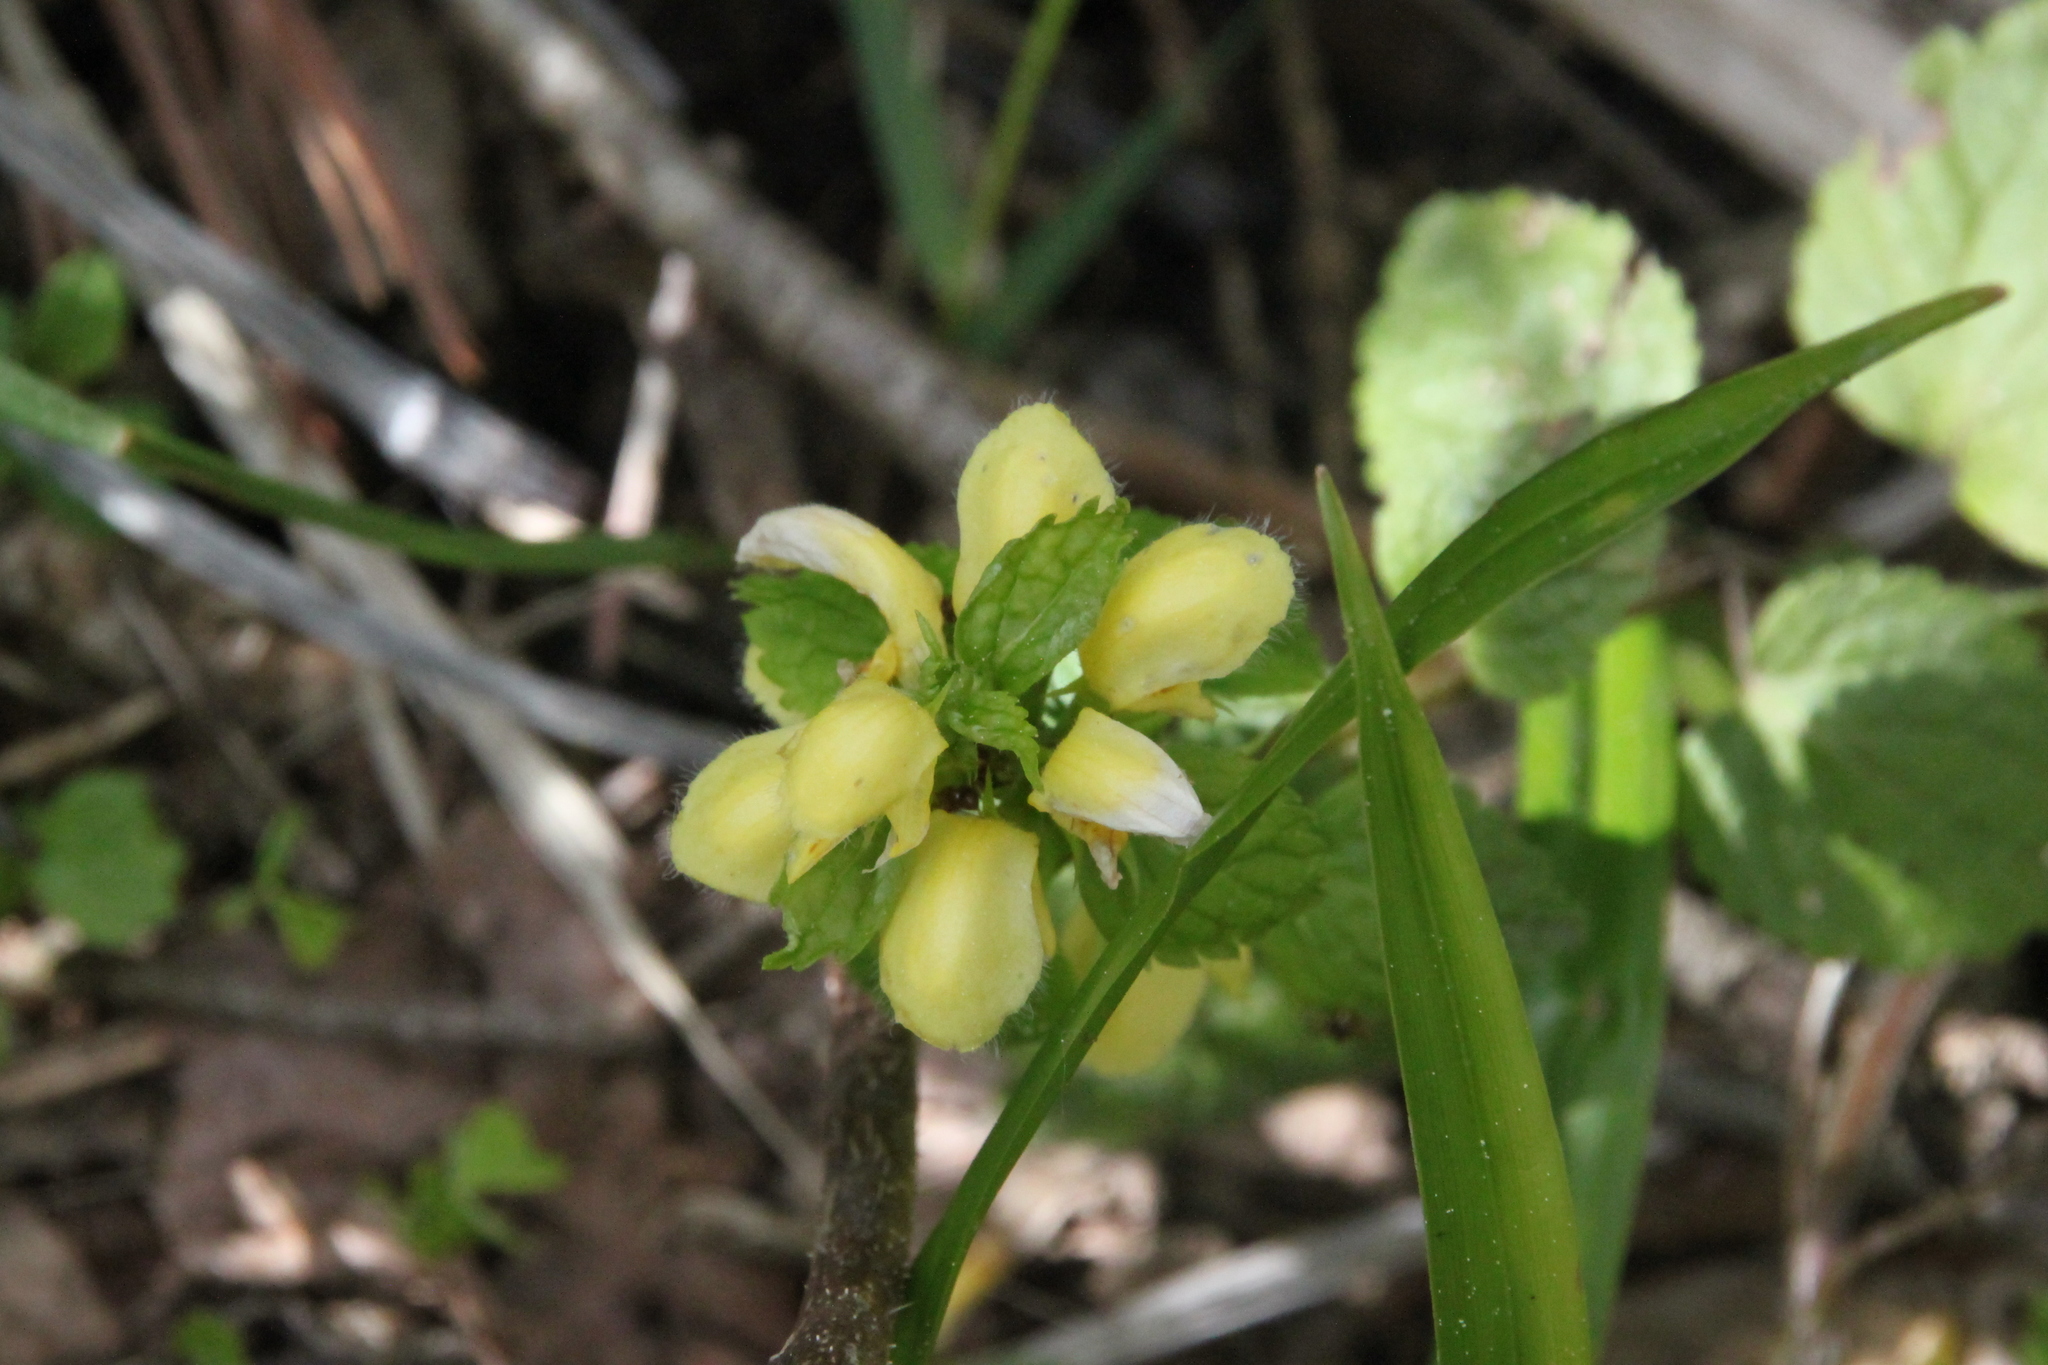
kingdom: Plantae
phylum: Tracheophyta
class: Magnoliopsida
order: Lamiales
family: Lamiaceae
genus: Lamium
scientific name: Lamium galeobdolon
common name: Yellow archangel
